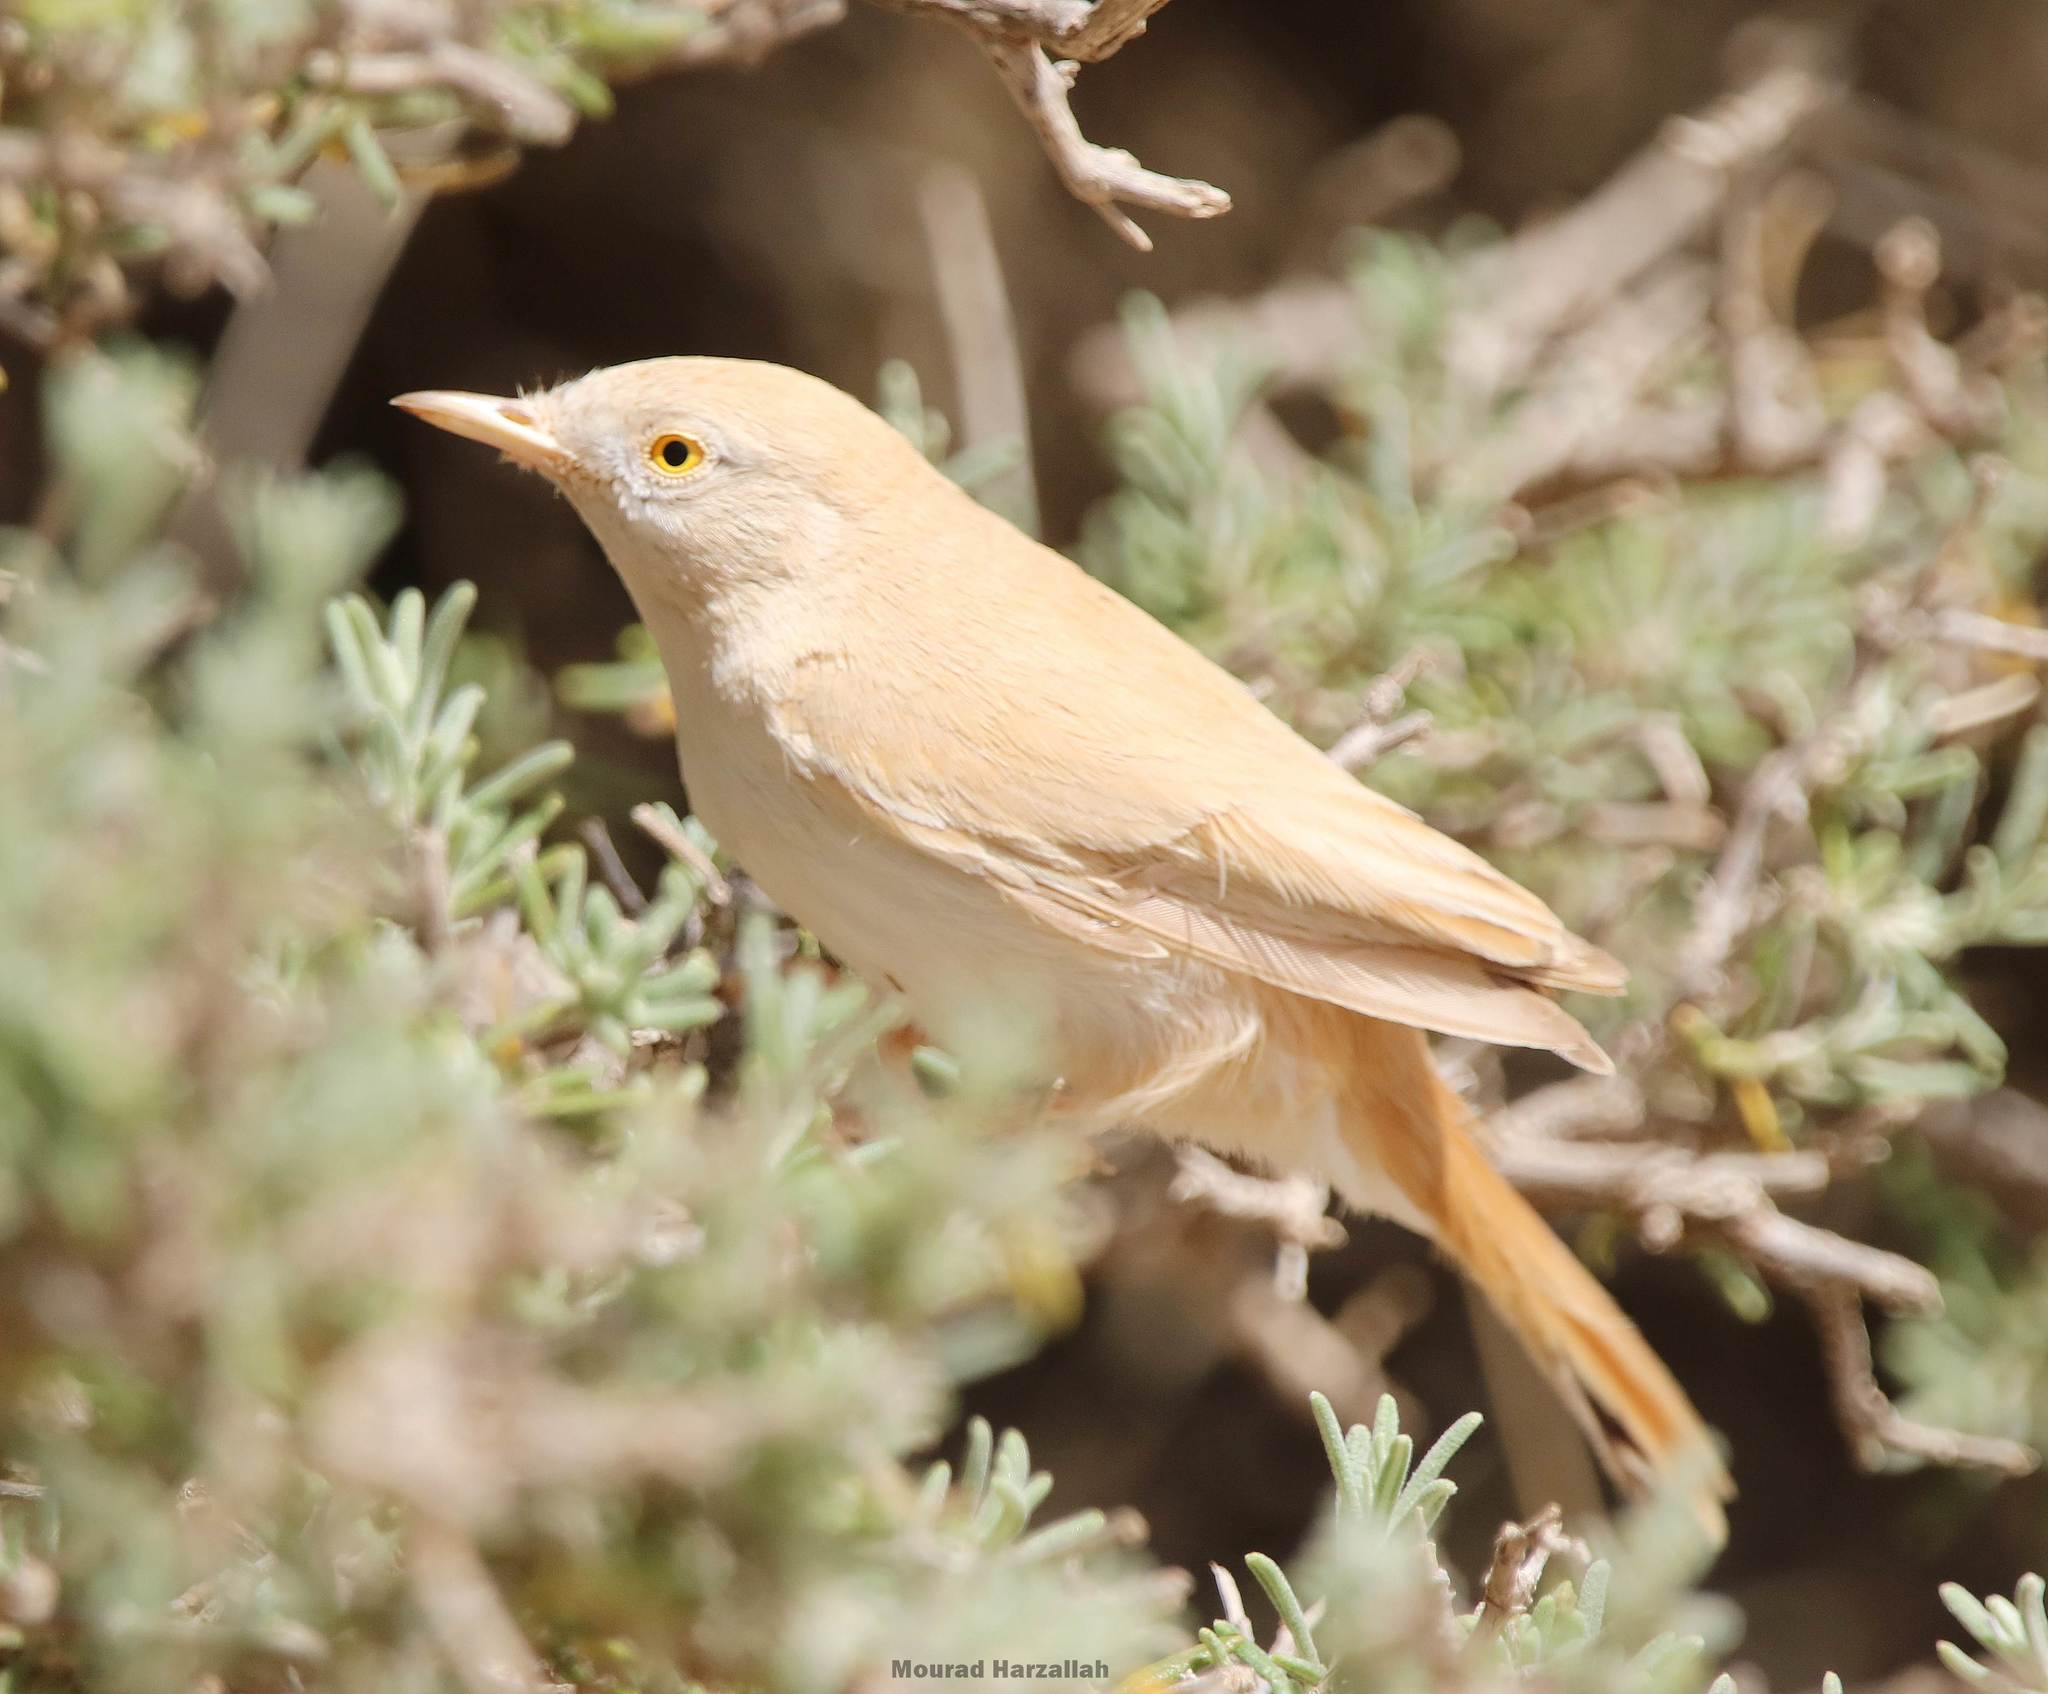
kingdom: Animalia
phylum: Chordata
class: Aves
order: Passeriformes
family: Sylviidae
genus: Sylvia
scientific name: Sylvia deserti
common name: African desert warbler
